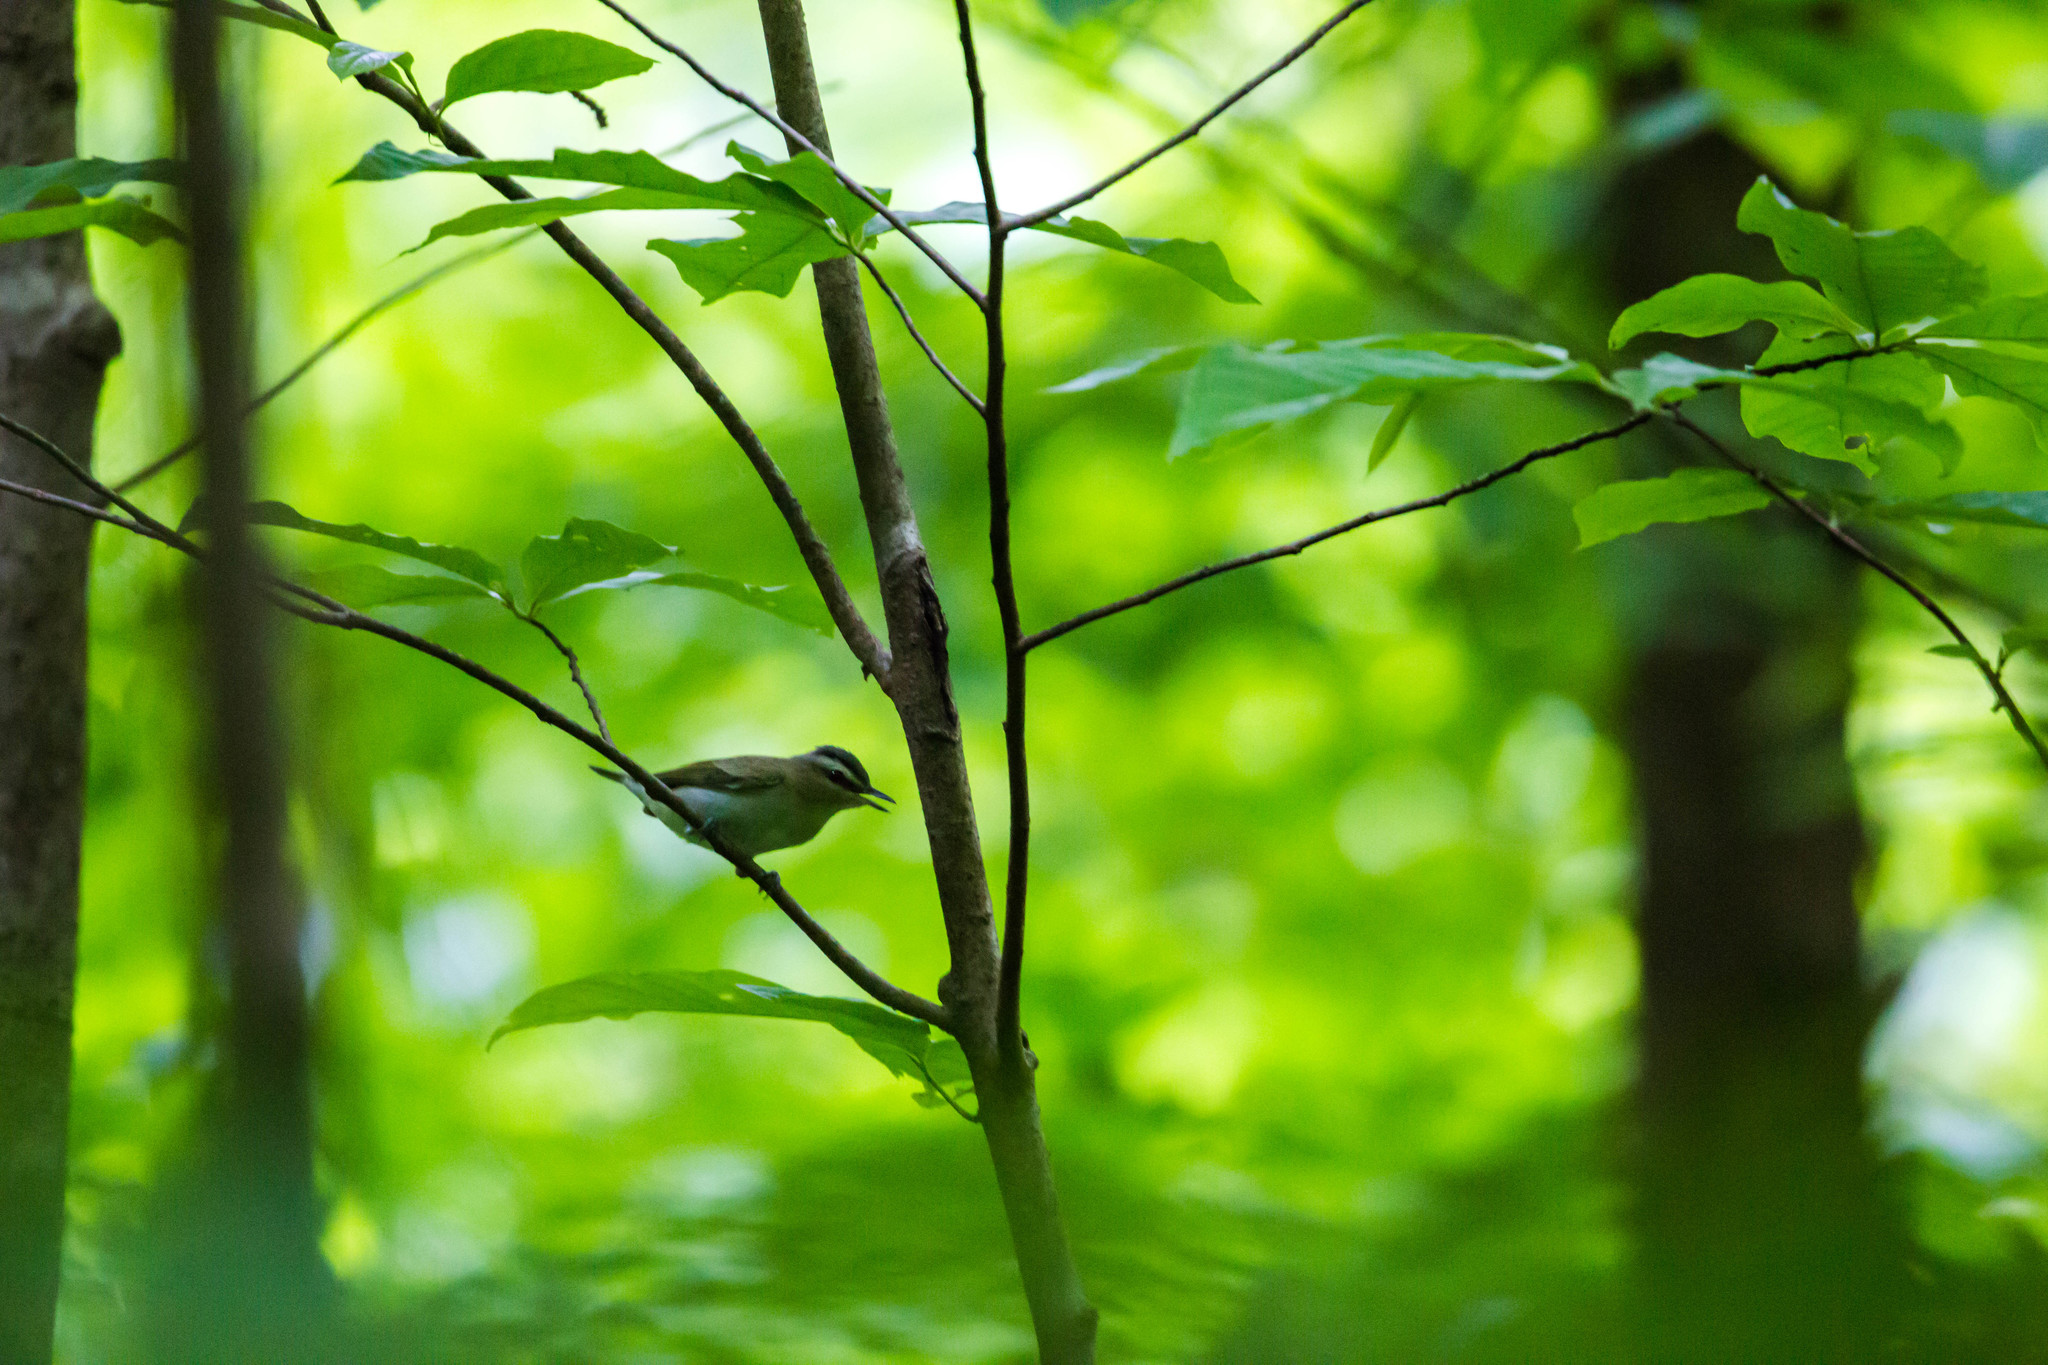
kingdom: Animalia
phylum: Chordata
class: Aves
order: Passeriformes
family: Vireonidae
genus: Vireo
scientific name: Vireo olivaceus
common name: Red-eyed vireo
